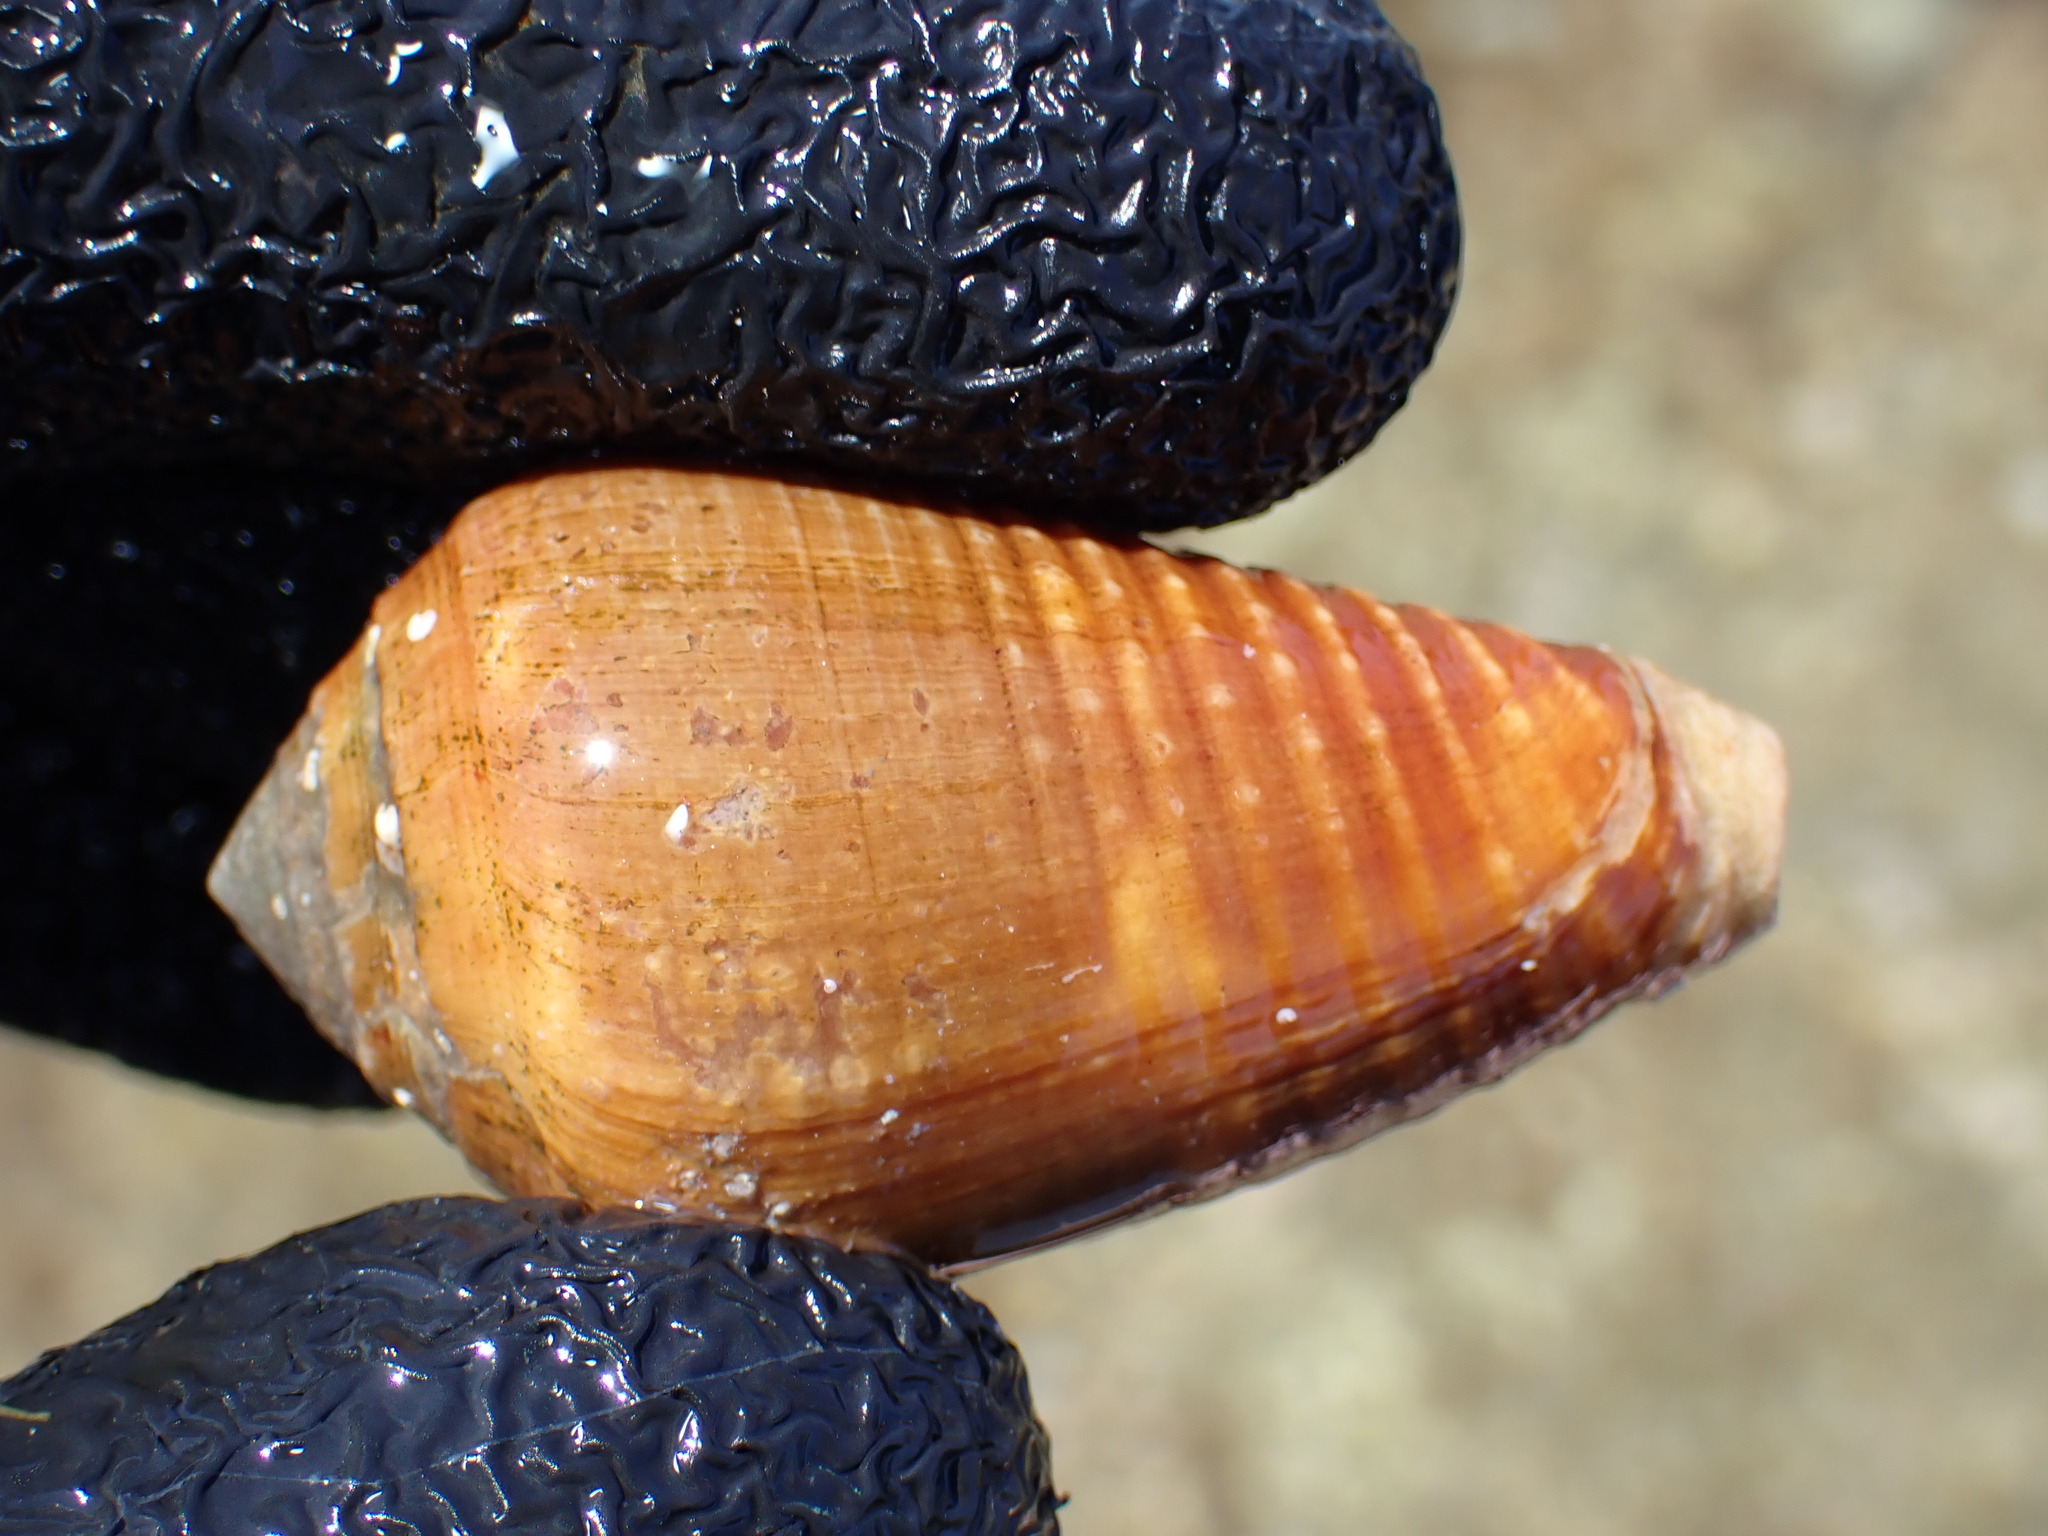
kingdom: Animalia
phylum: Mollusca
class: Gastropoda
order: Neogastropoda
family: Conidae
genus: Conus
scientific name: Conus catus
